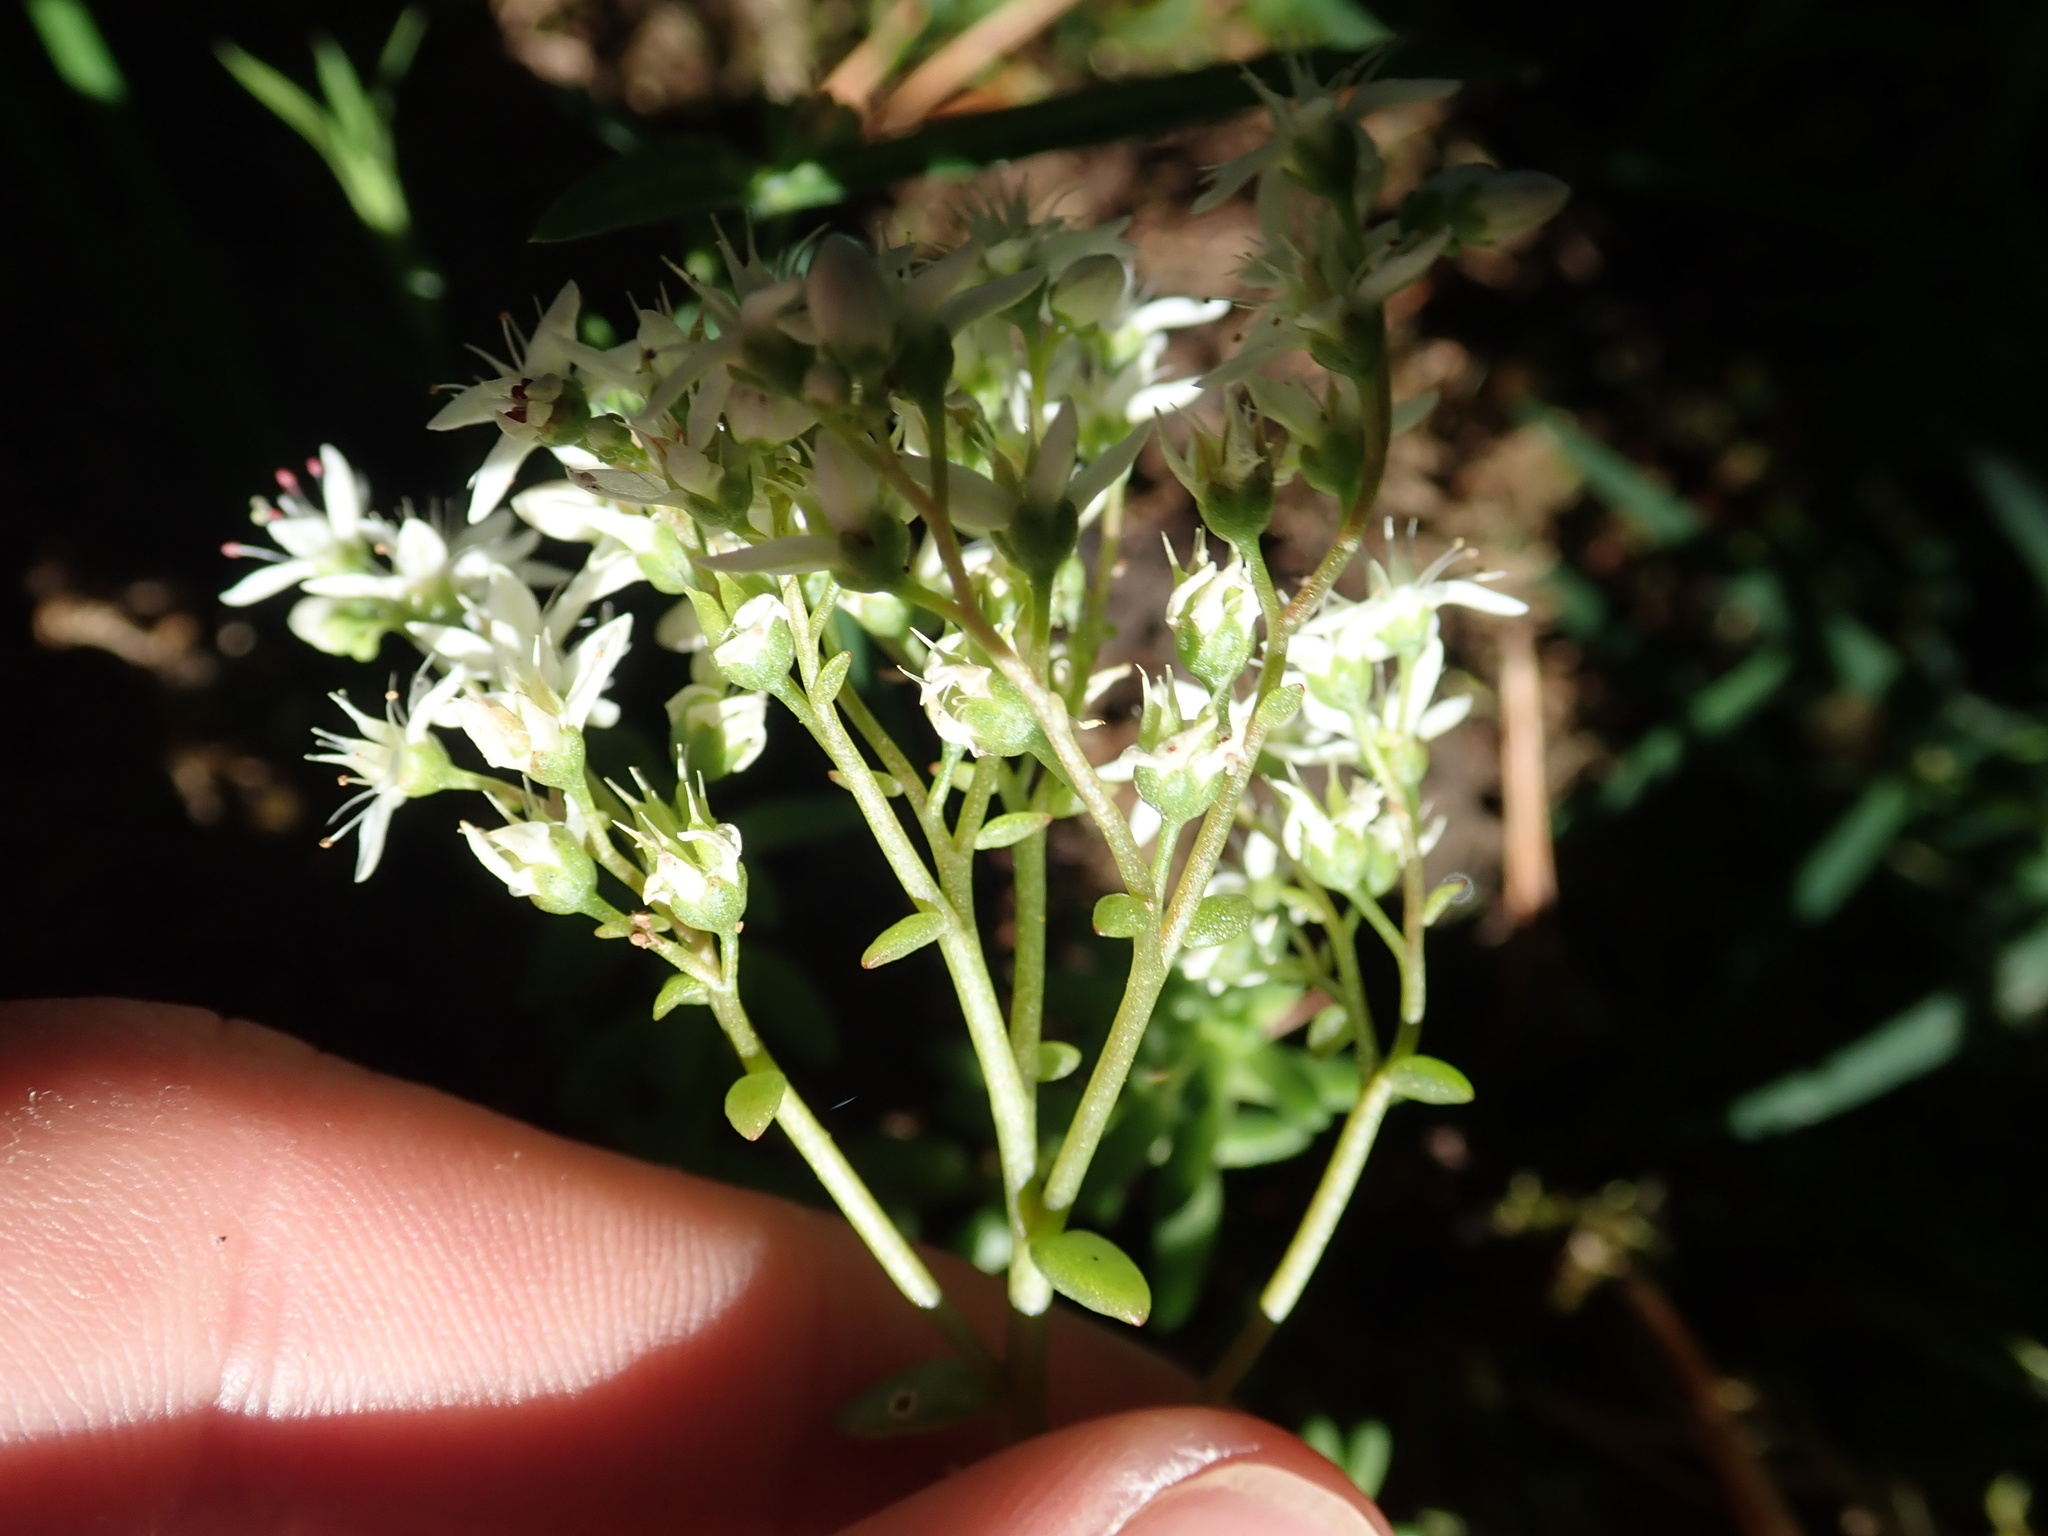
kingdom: Plantae
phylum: Tracheophyta
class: Magnoliopsida
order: Saxifragales
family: Crassulaceae
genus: Sedum
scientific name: Sedum album
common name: White stonecrop
